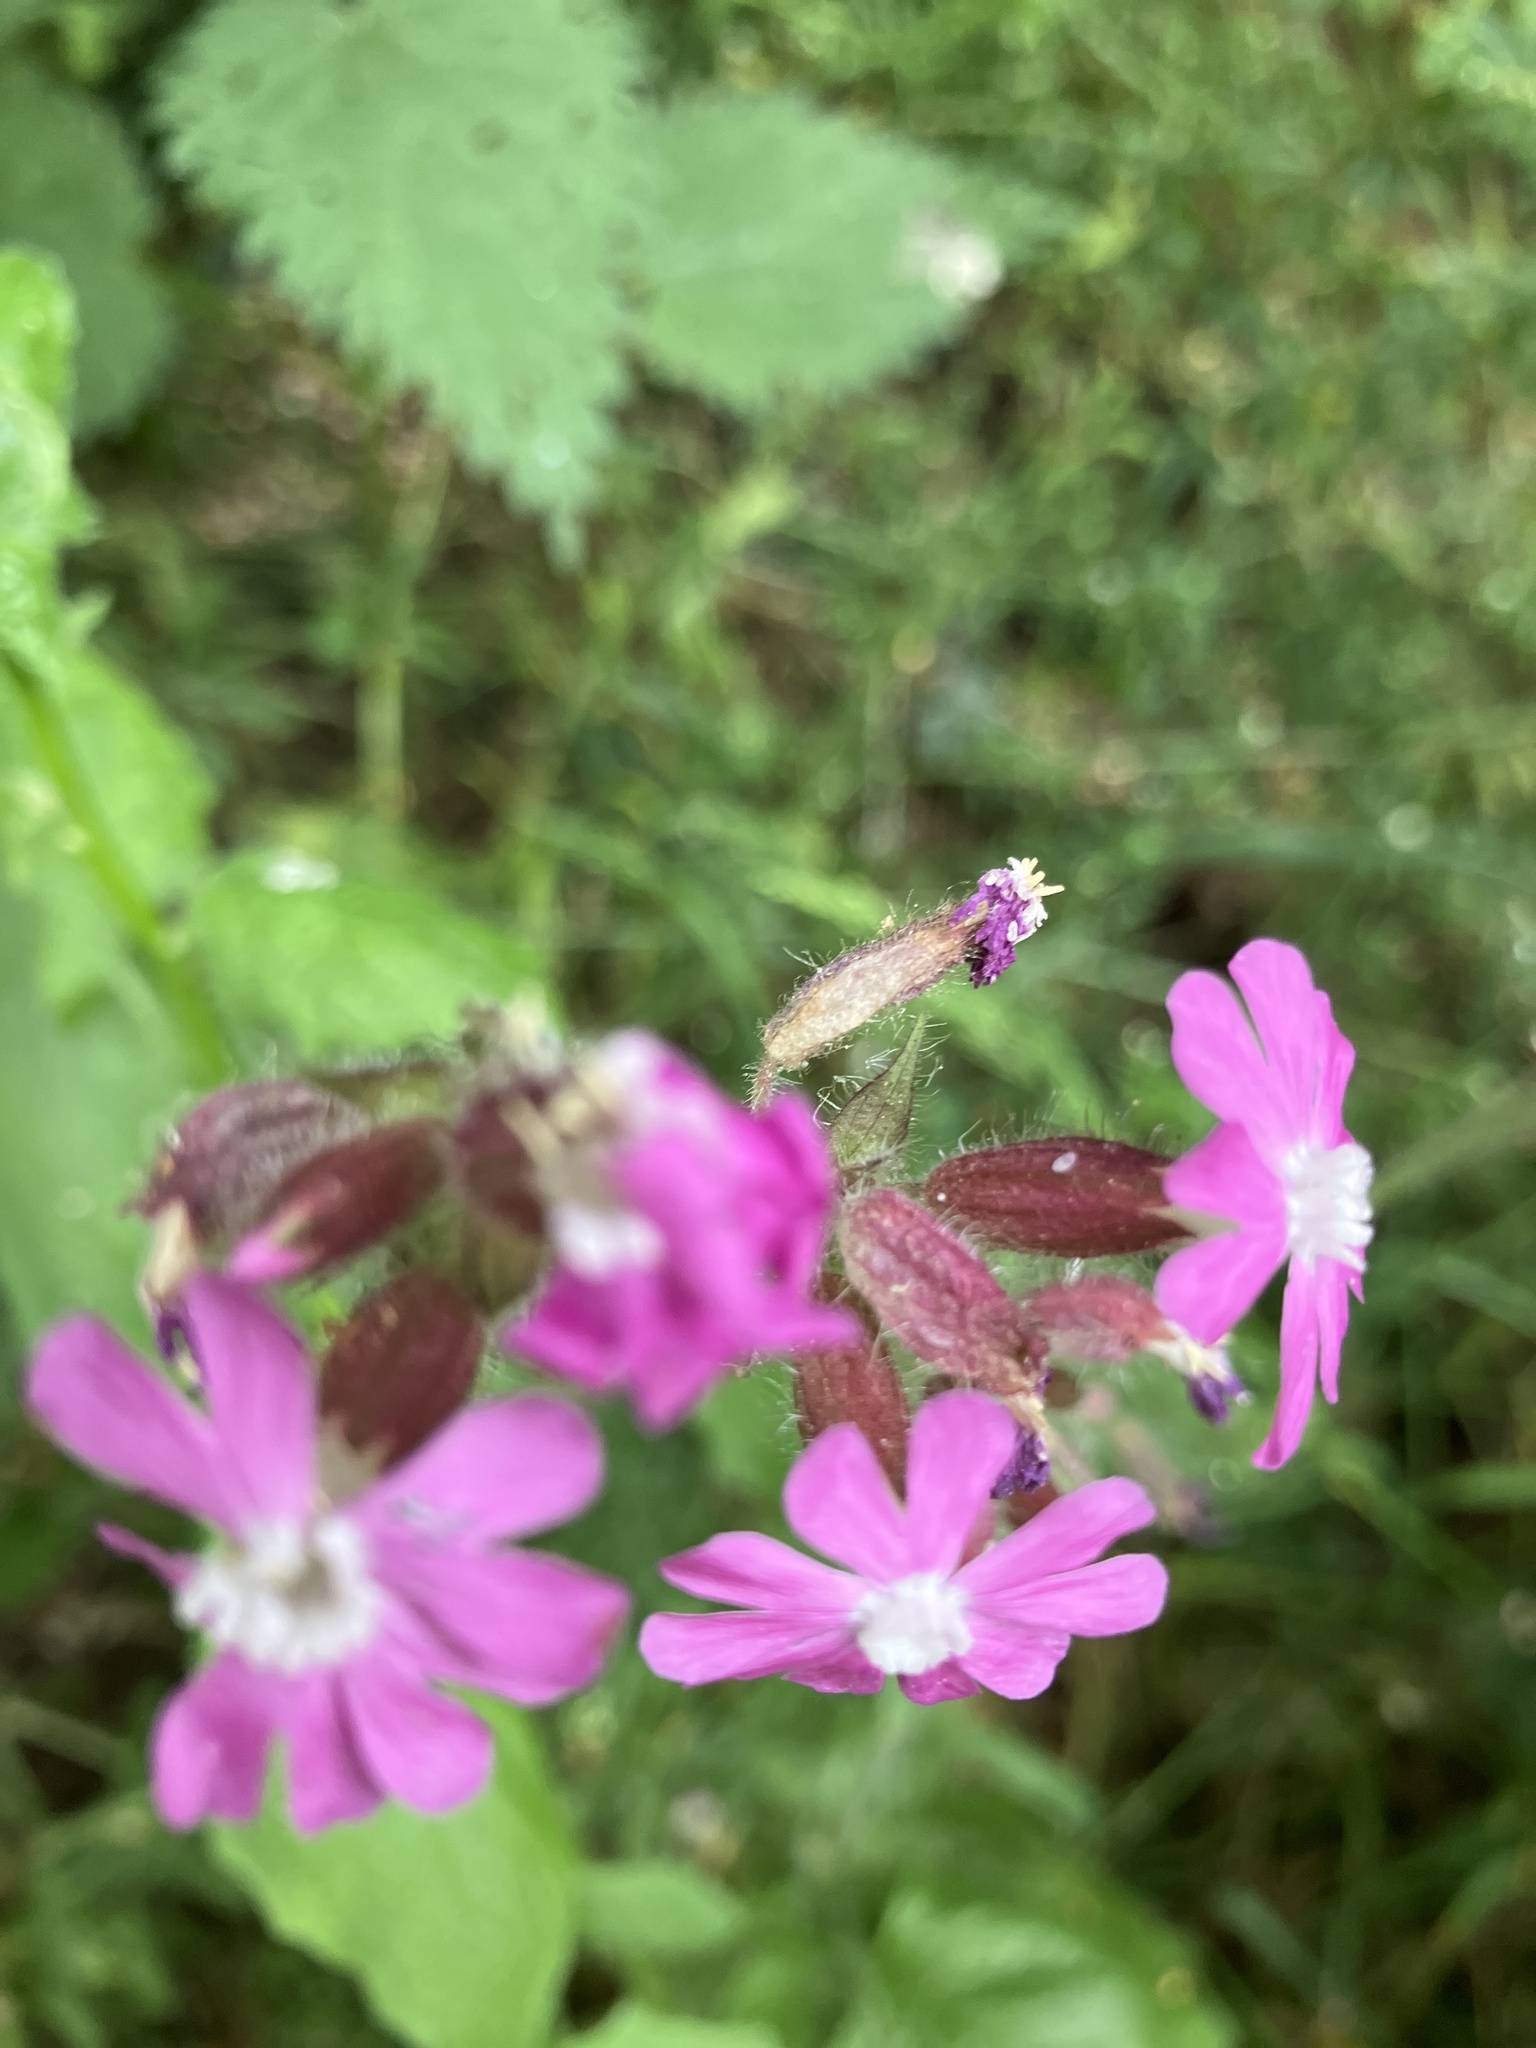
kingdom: Plantae
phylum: Tracheophyta
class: Magnoliopsida
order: Caryophyllales
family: Caryophyllaceae
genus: Silene
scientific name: Silene dioica
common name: Red campion
